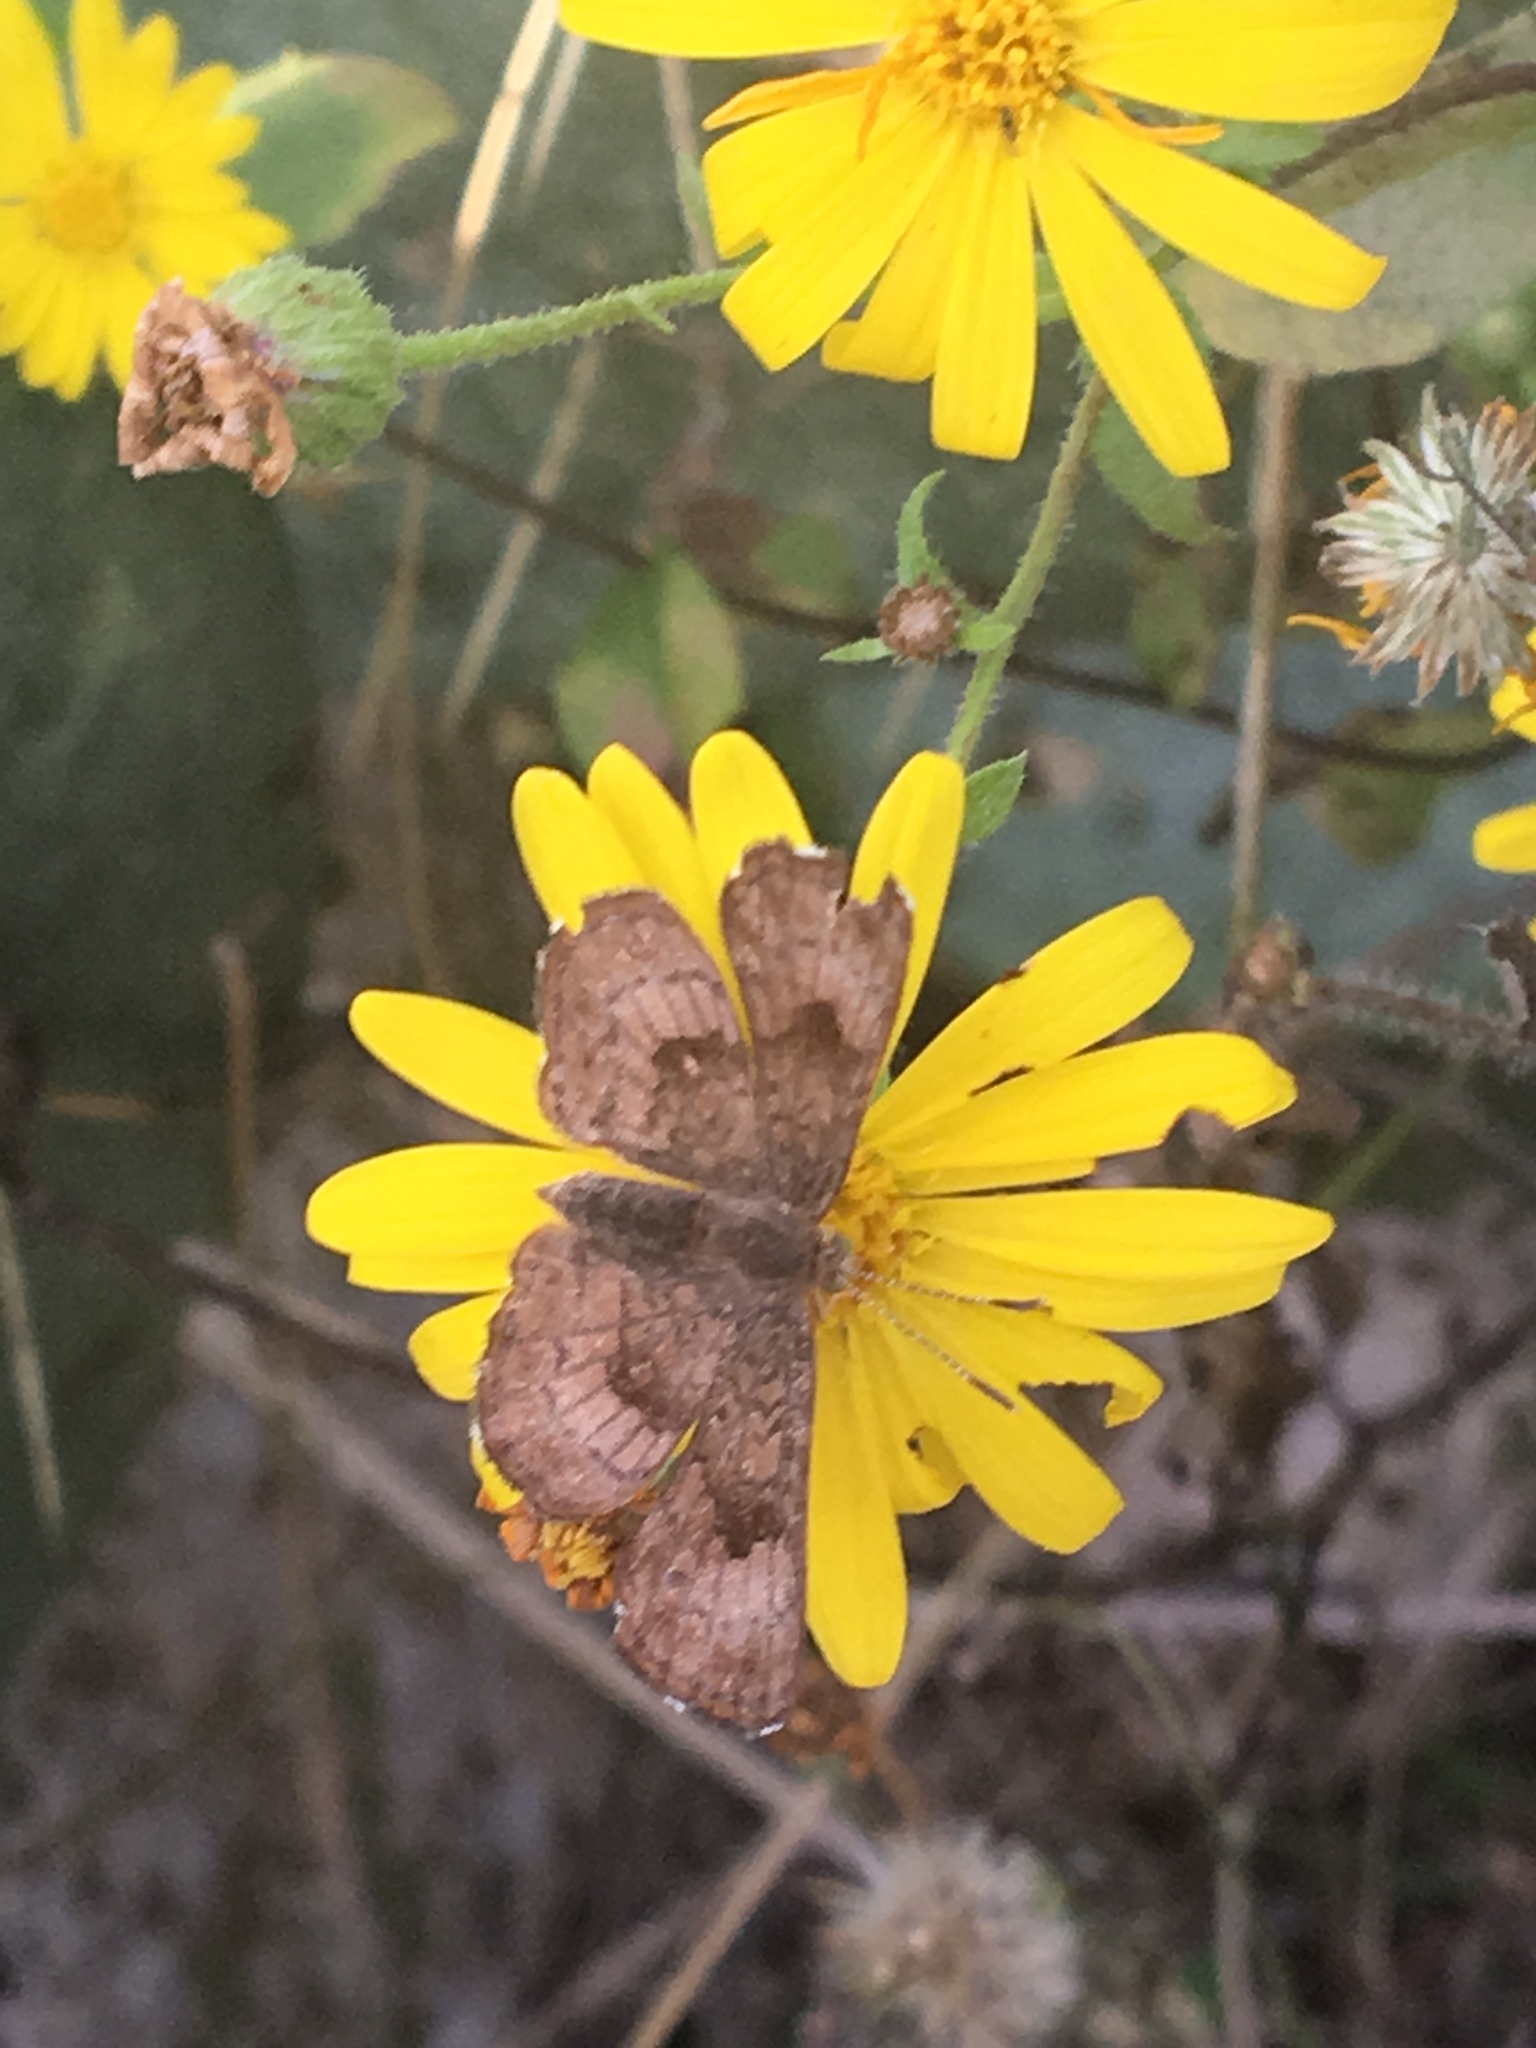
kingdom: Animalia
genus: Calephelis
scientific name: Calephelis nemesis
